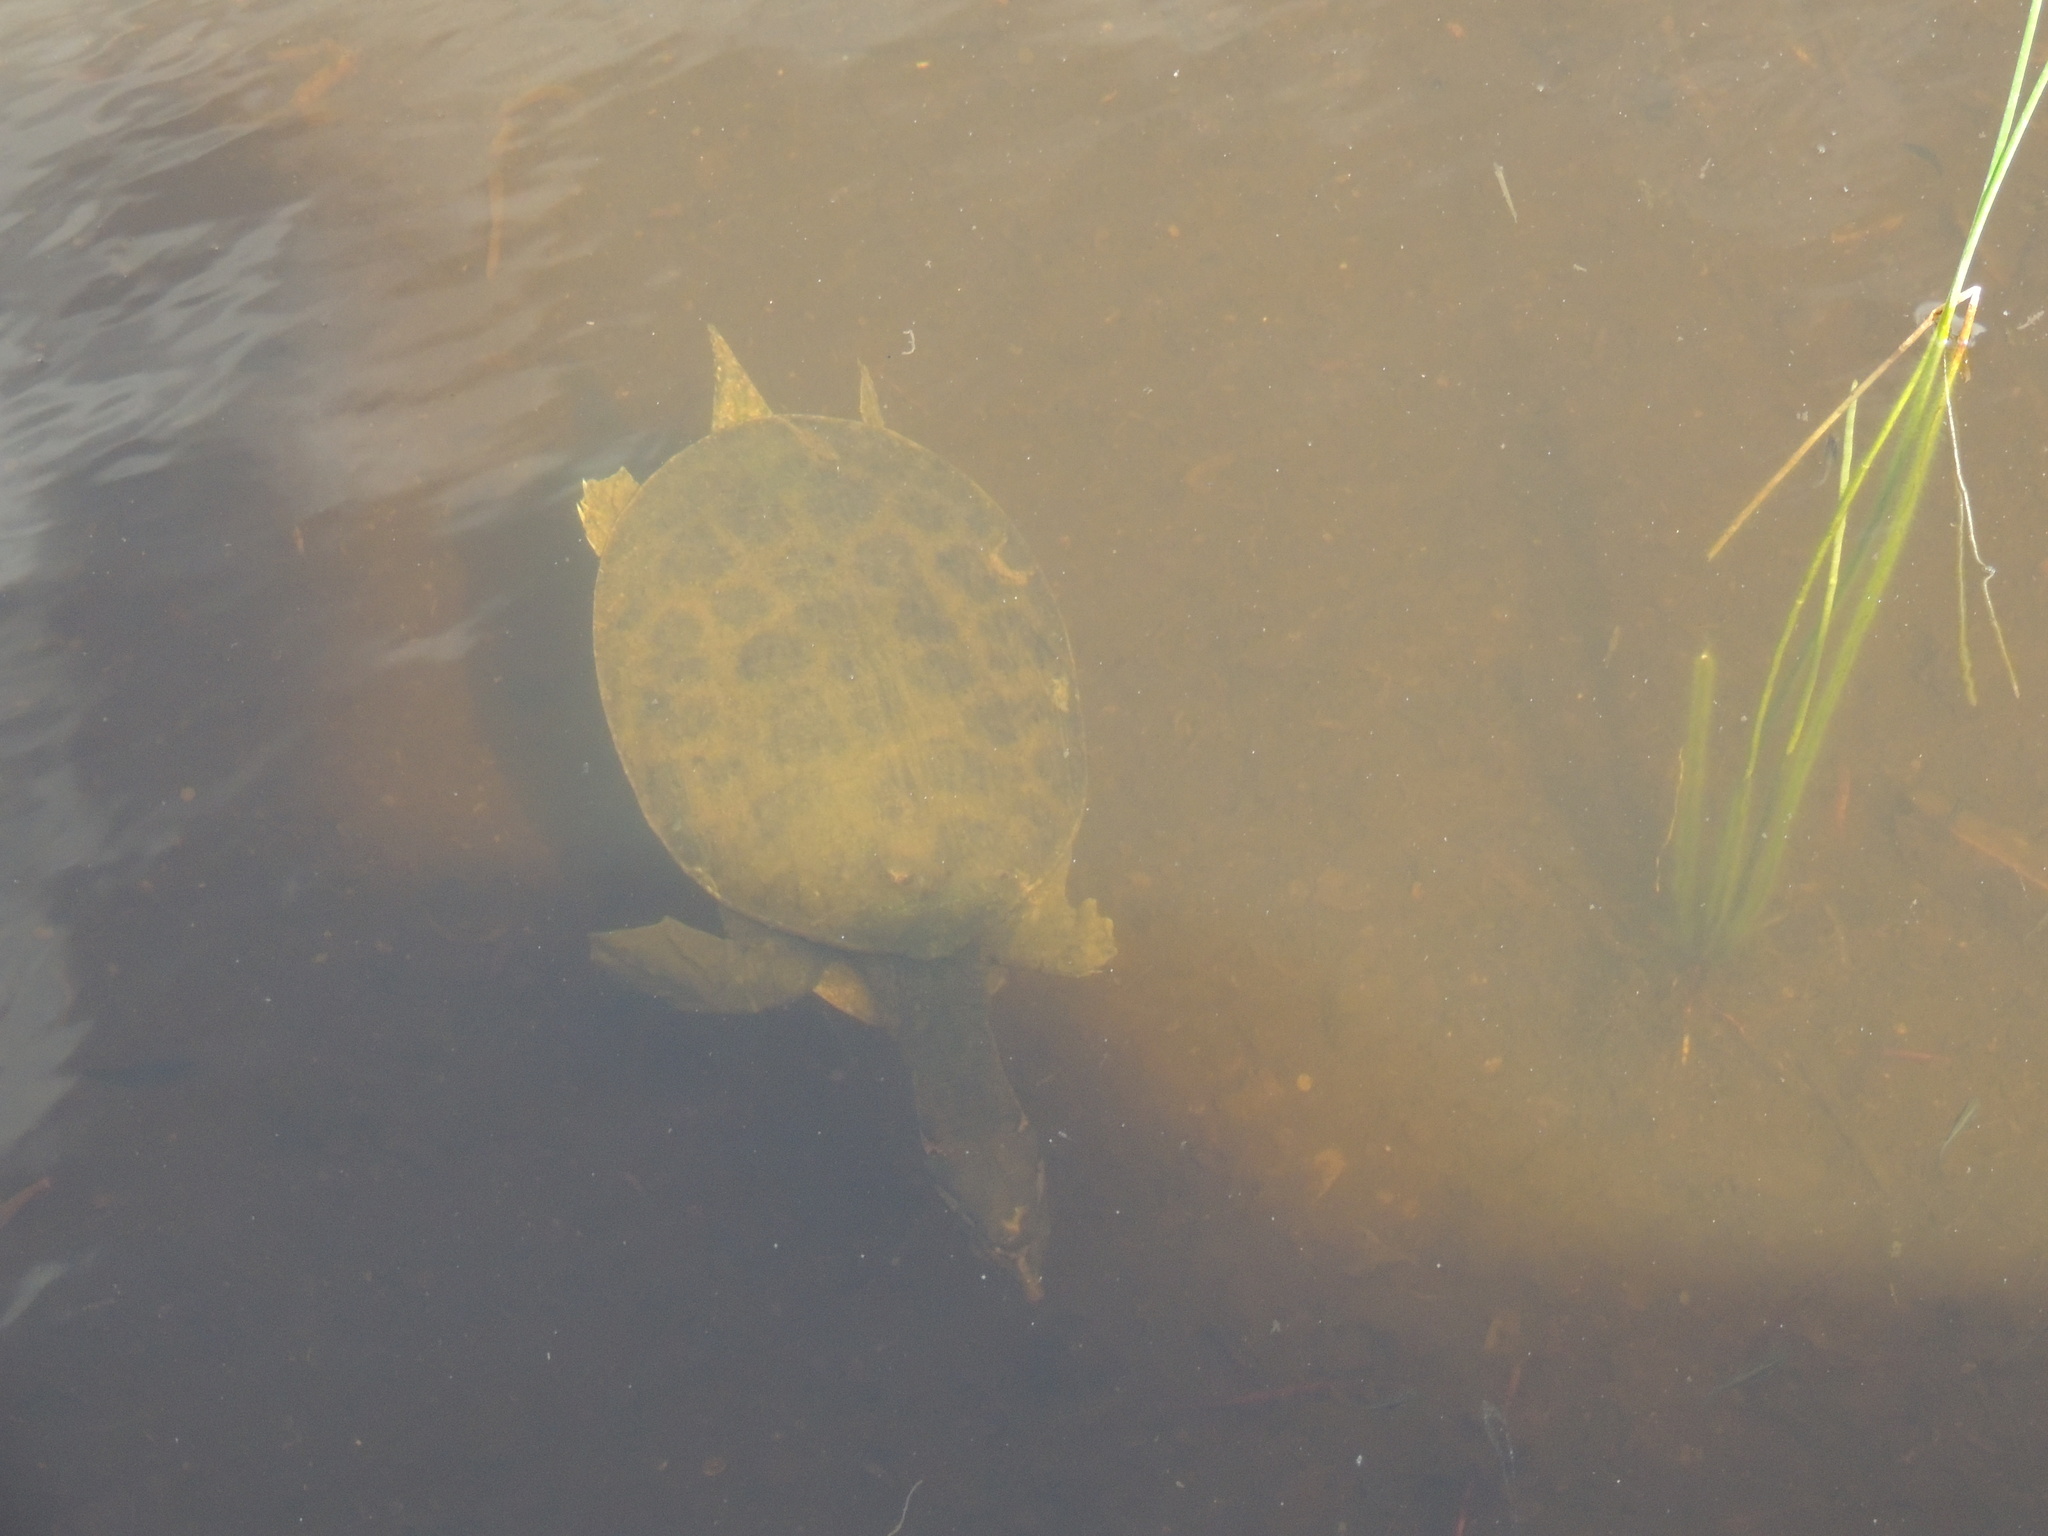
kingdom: Animalia
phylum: Chordata
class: Testudines
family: Trionychidae
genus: Apalone
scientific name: Apalone ferox
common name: Florida softshell turtle
